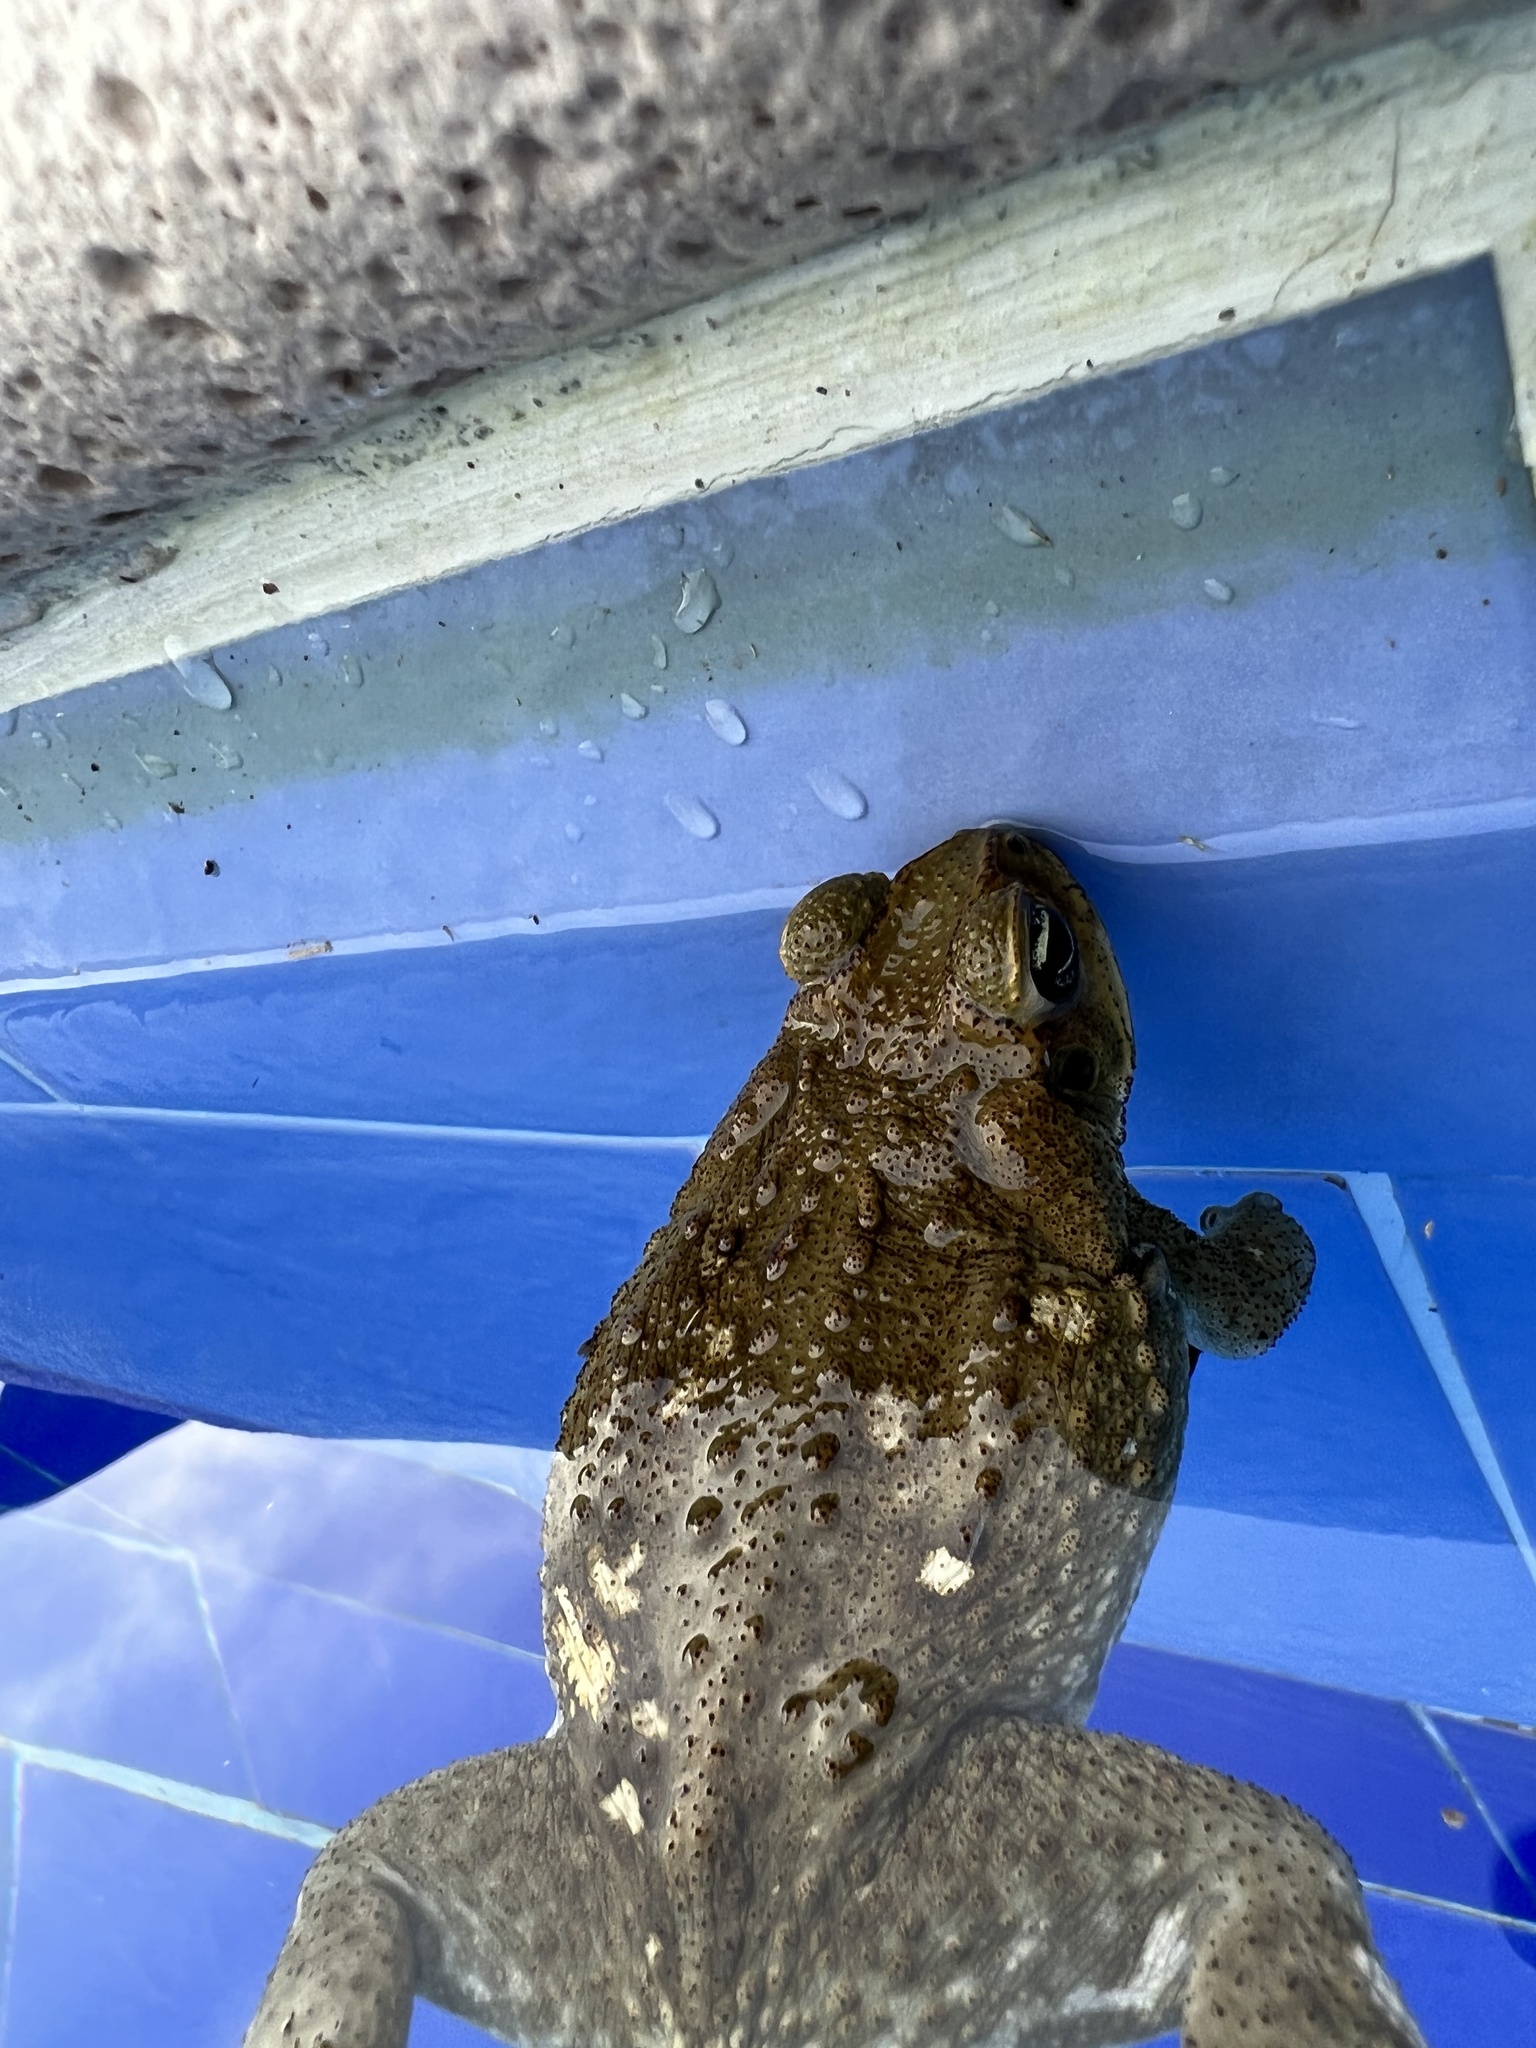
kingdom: Animalia
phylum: Chordata
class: Amphibia
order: Anura
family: Bufonidae
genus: Rhinella
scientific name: Rhinella horribilis
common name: Mesoamerican cane toad
